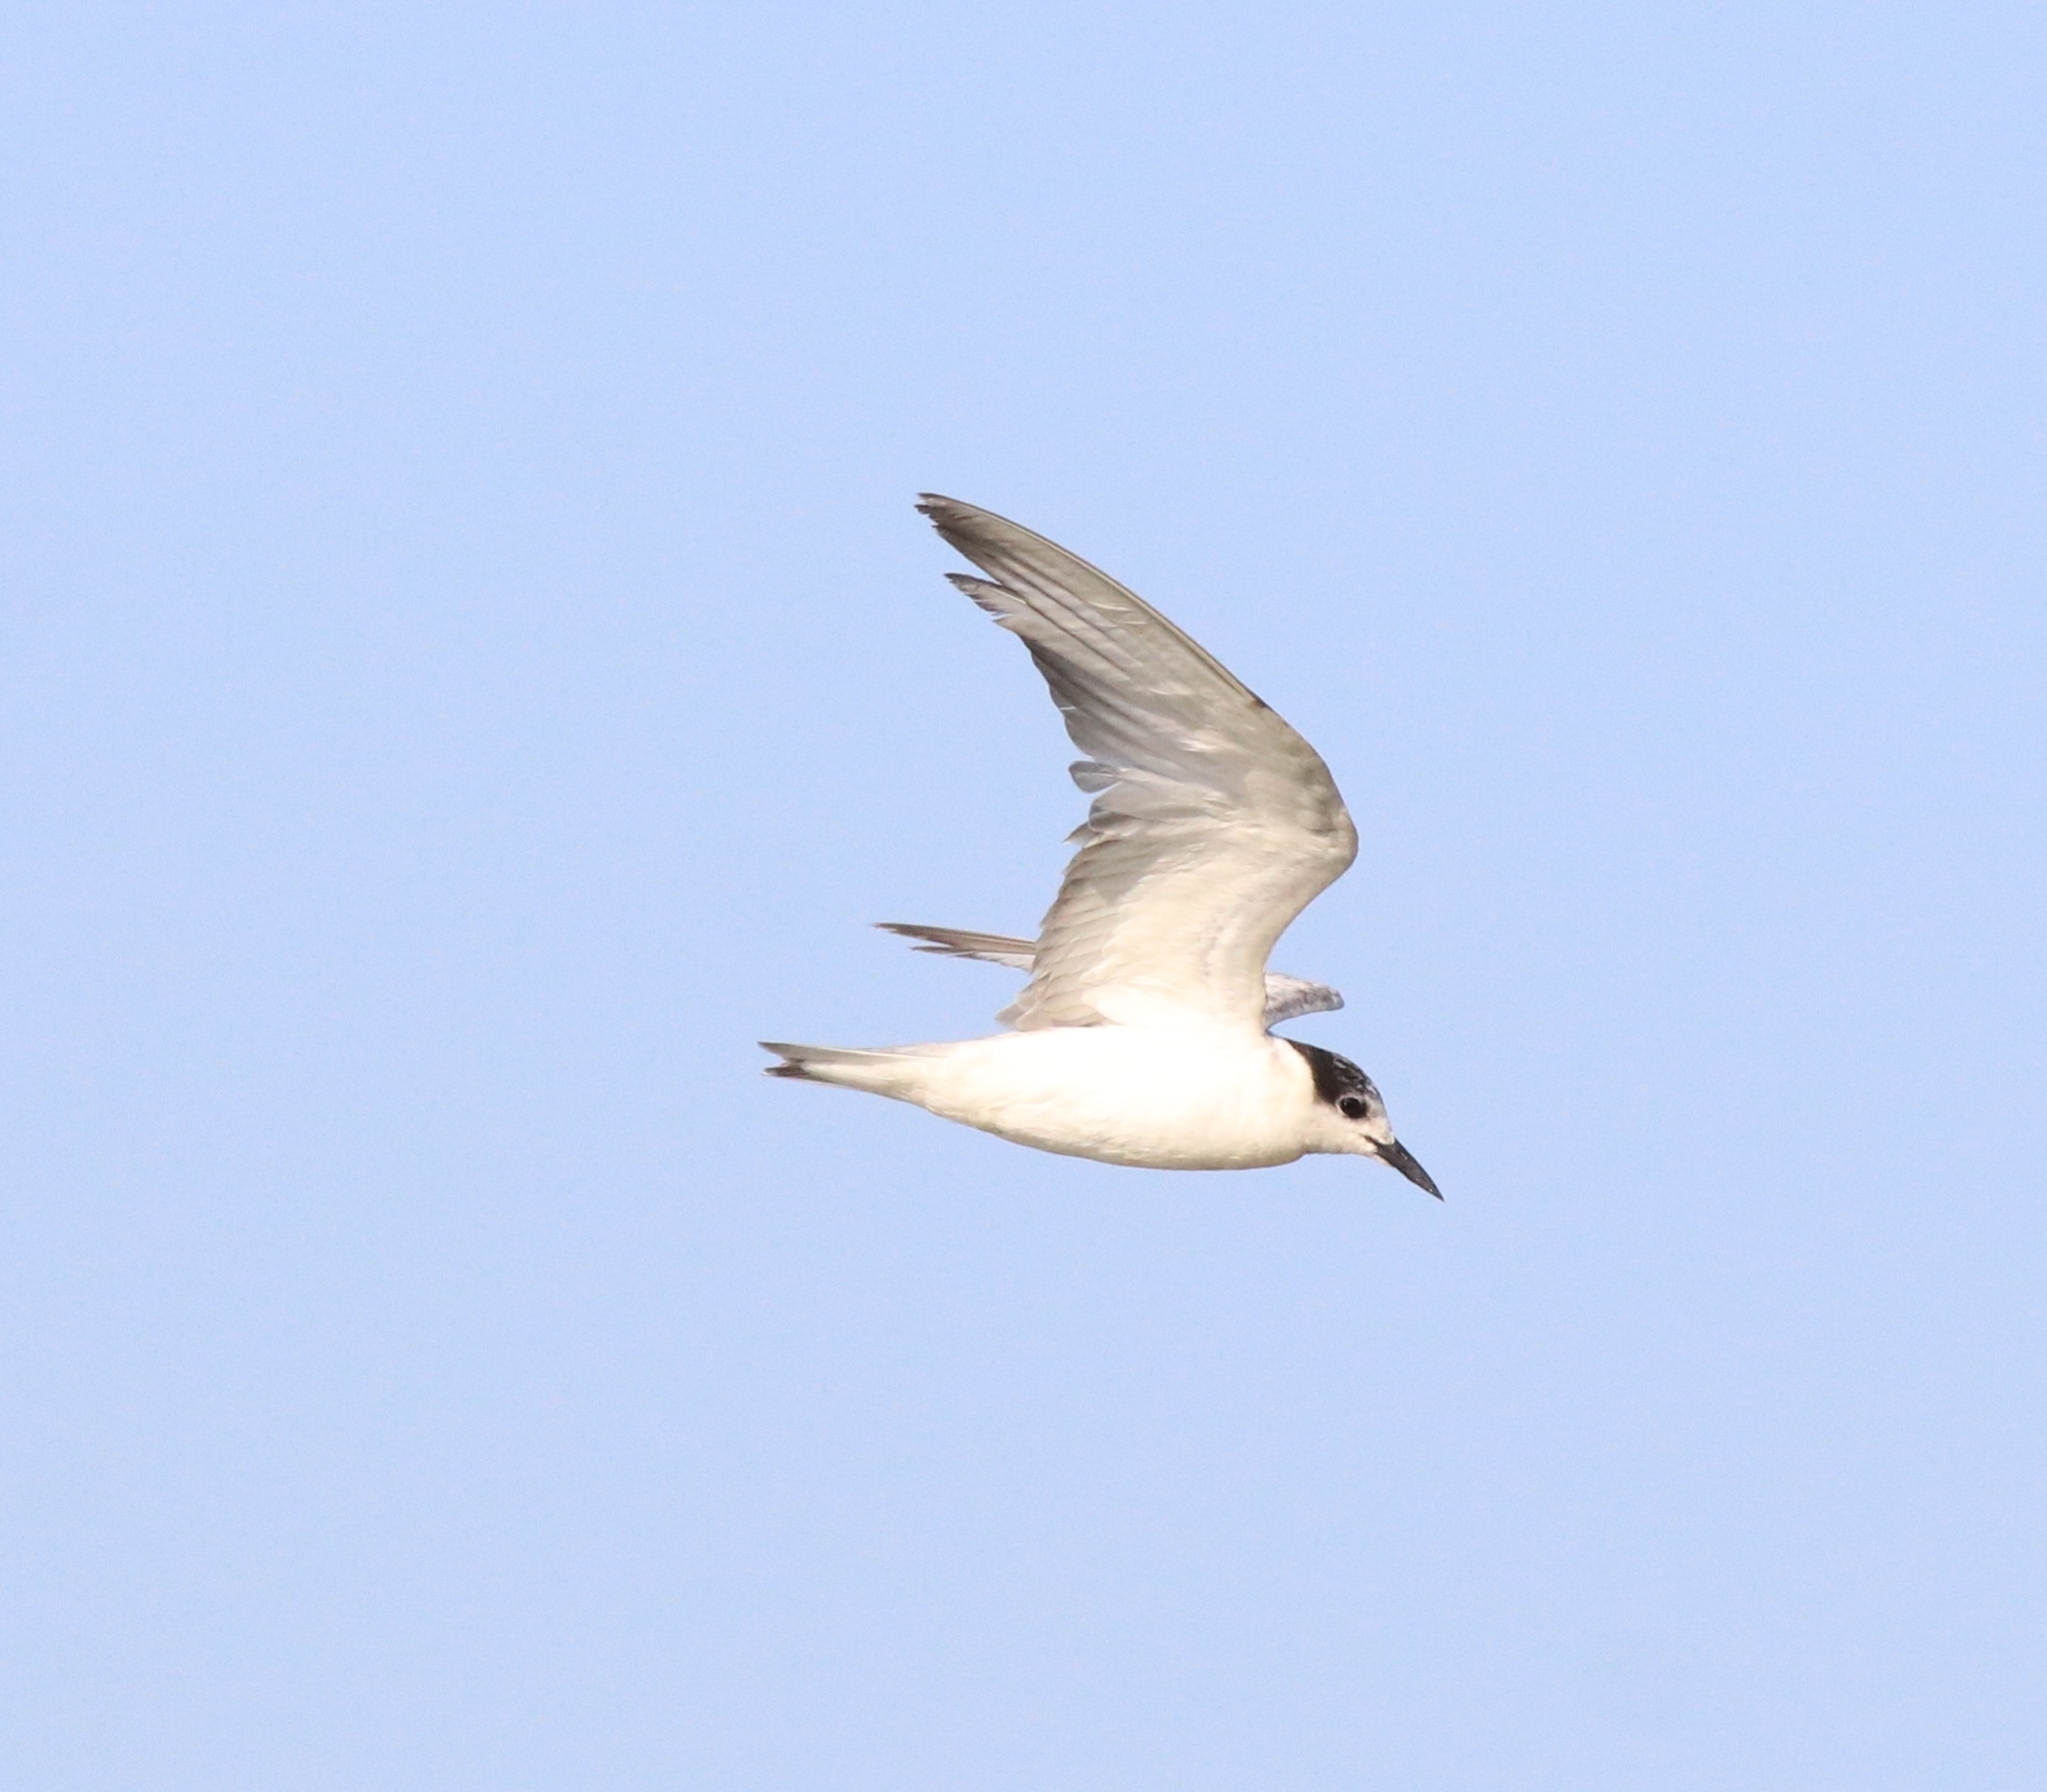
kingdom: Animalia
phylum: Chordata
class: Aves
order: Charadriiformes
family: Laridae
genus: Chlidonias
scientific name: Chlidonias hybrida
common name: Whiskered tern
